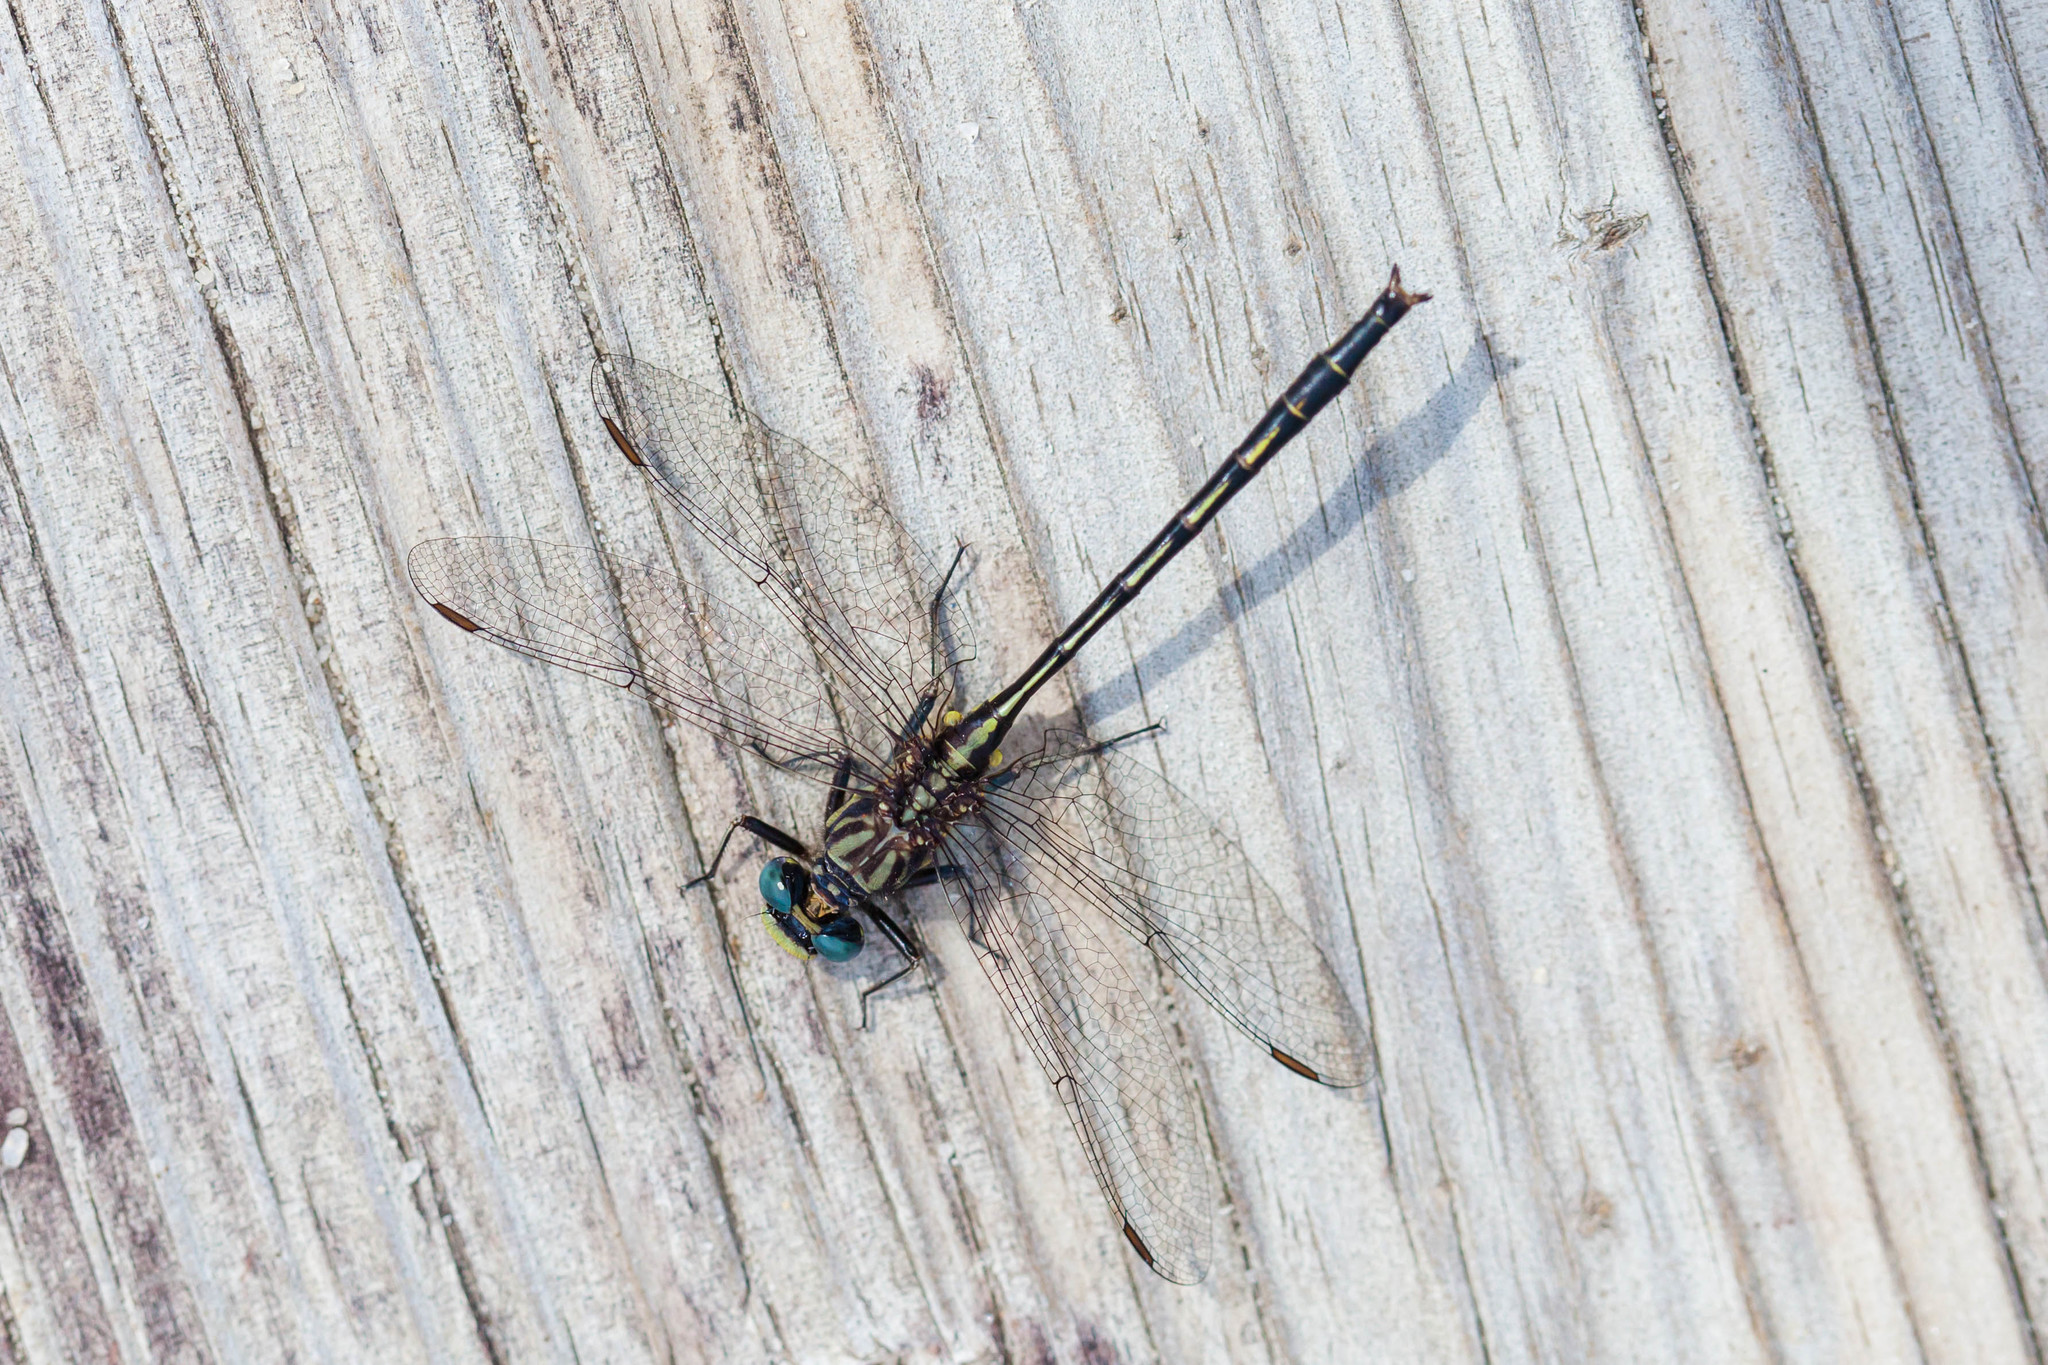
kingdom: Animalia
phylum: Arthropoda
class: Insecta
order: Odonata
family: Gomphidae
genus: Phanogomphus
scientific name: Phanogomphus westfalli
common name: Westfall’s clubtail
